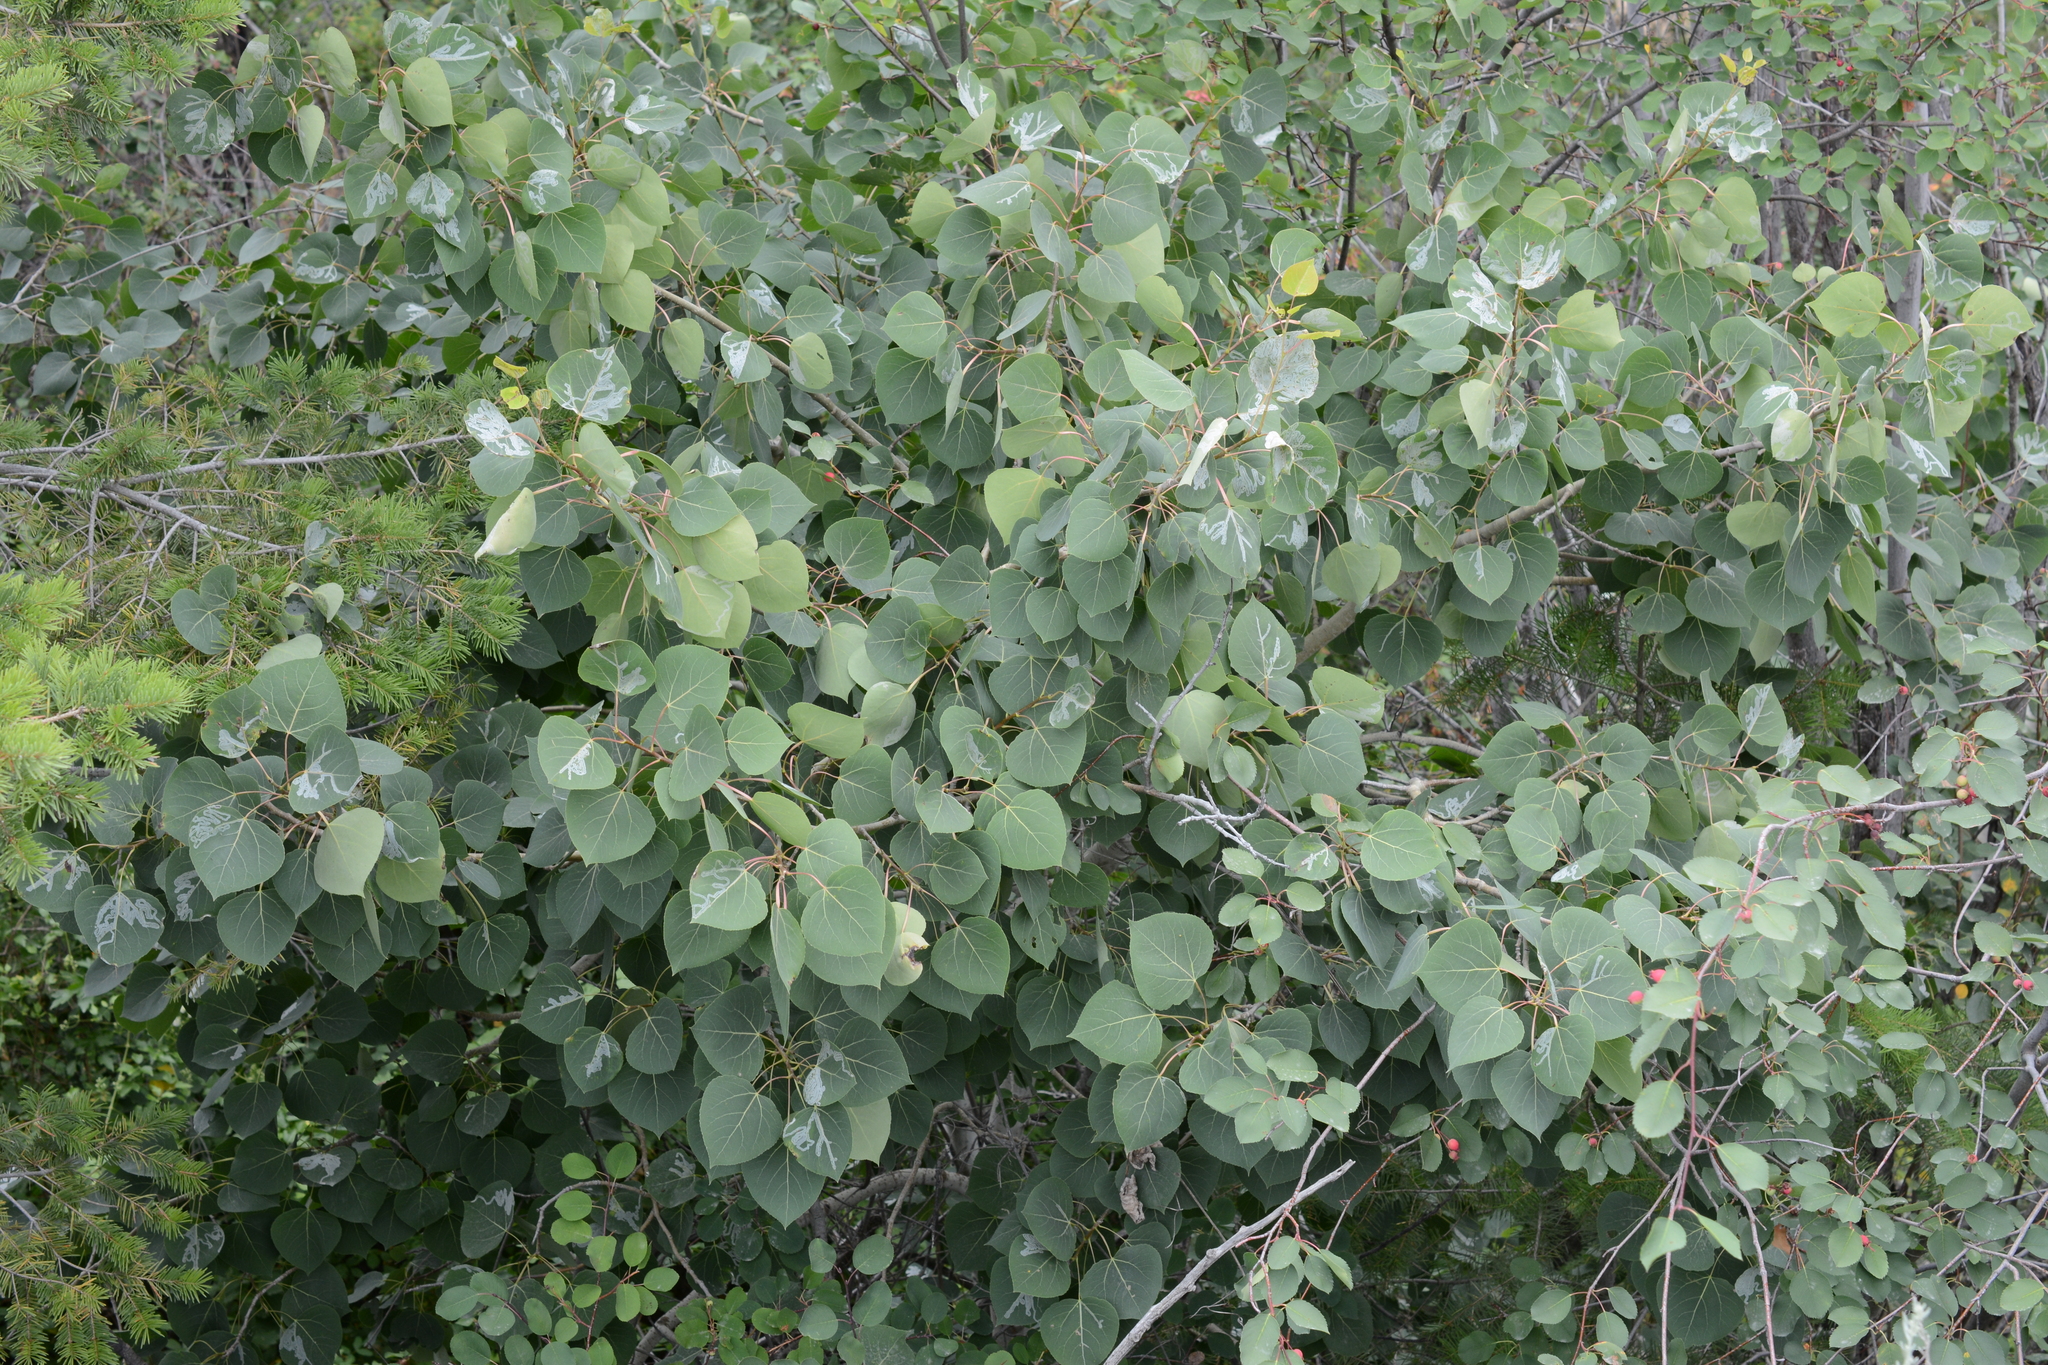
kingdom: Plantae
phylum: Tracheophyta
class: Magnoliopsida
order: Malpighiales
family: Salicaceae
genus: Populus
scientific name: Populus tremuloides
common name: Quaking aspen
